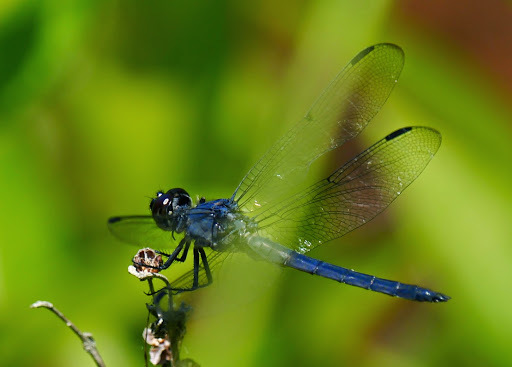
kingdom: Animalia
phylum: Arthropoda
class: Insecta
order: Odonata
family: Libellulidae
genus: Libellula
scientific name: Libellula incesta
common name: Slaty skimmer
